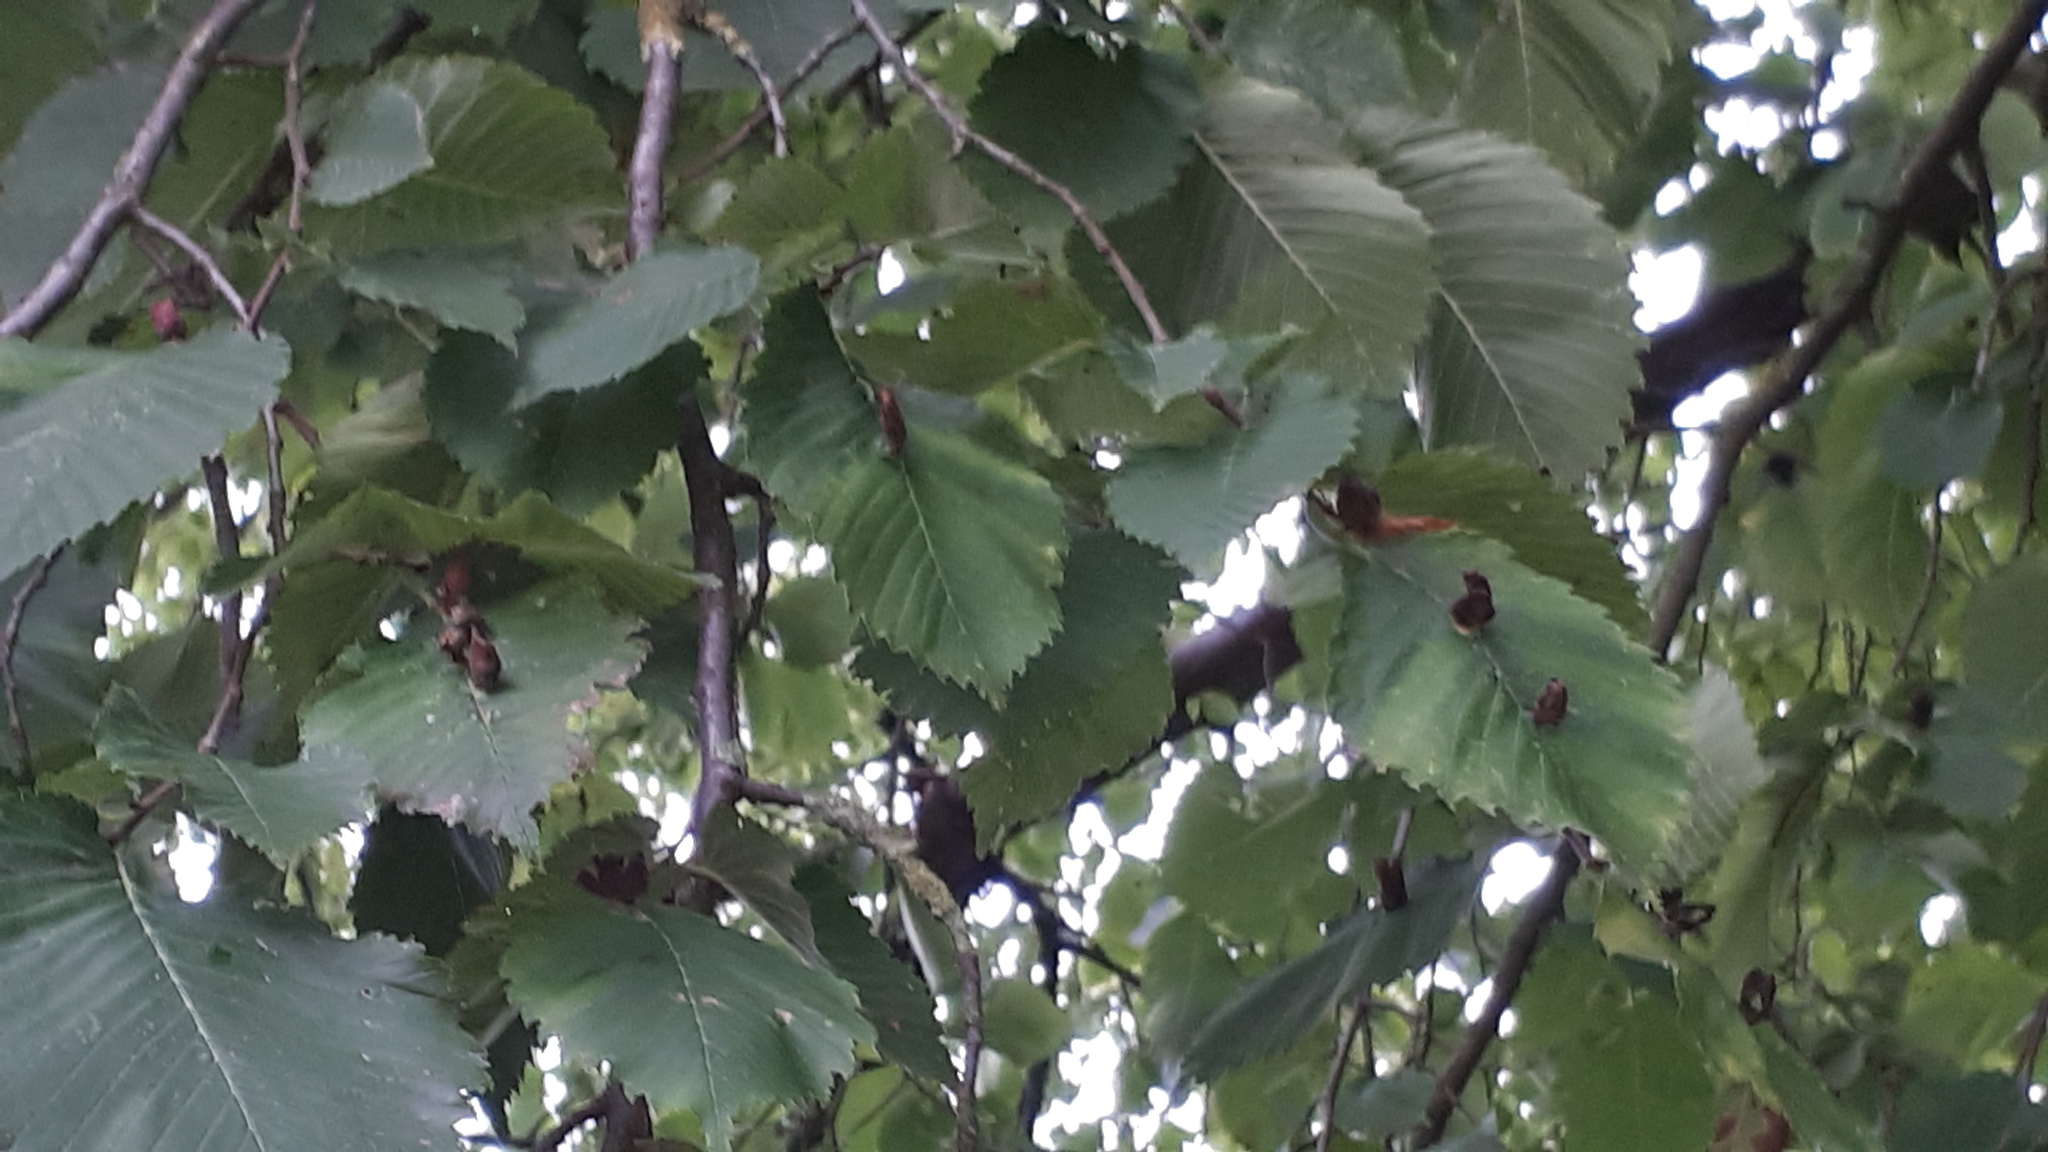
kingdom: Animalia
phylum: Arthropoda
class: Insecta
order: Hemiptera
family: Aphididae
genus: Colopha
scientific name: Colopha compressa
